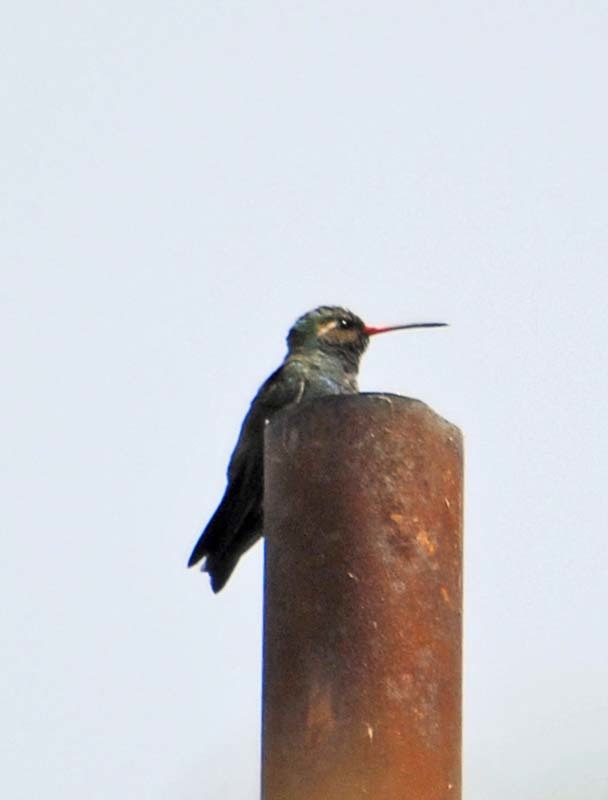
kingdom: Animalia
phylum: Chordata
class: Aves
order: Apodiformes
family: Trochilidae
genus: Cynanthus
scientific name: Cynanthus latirostris
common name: Broad-billed hummingbird
